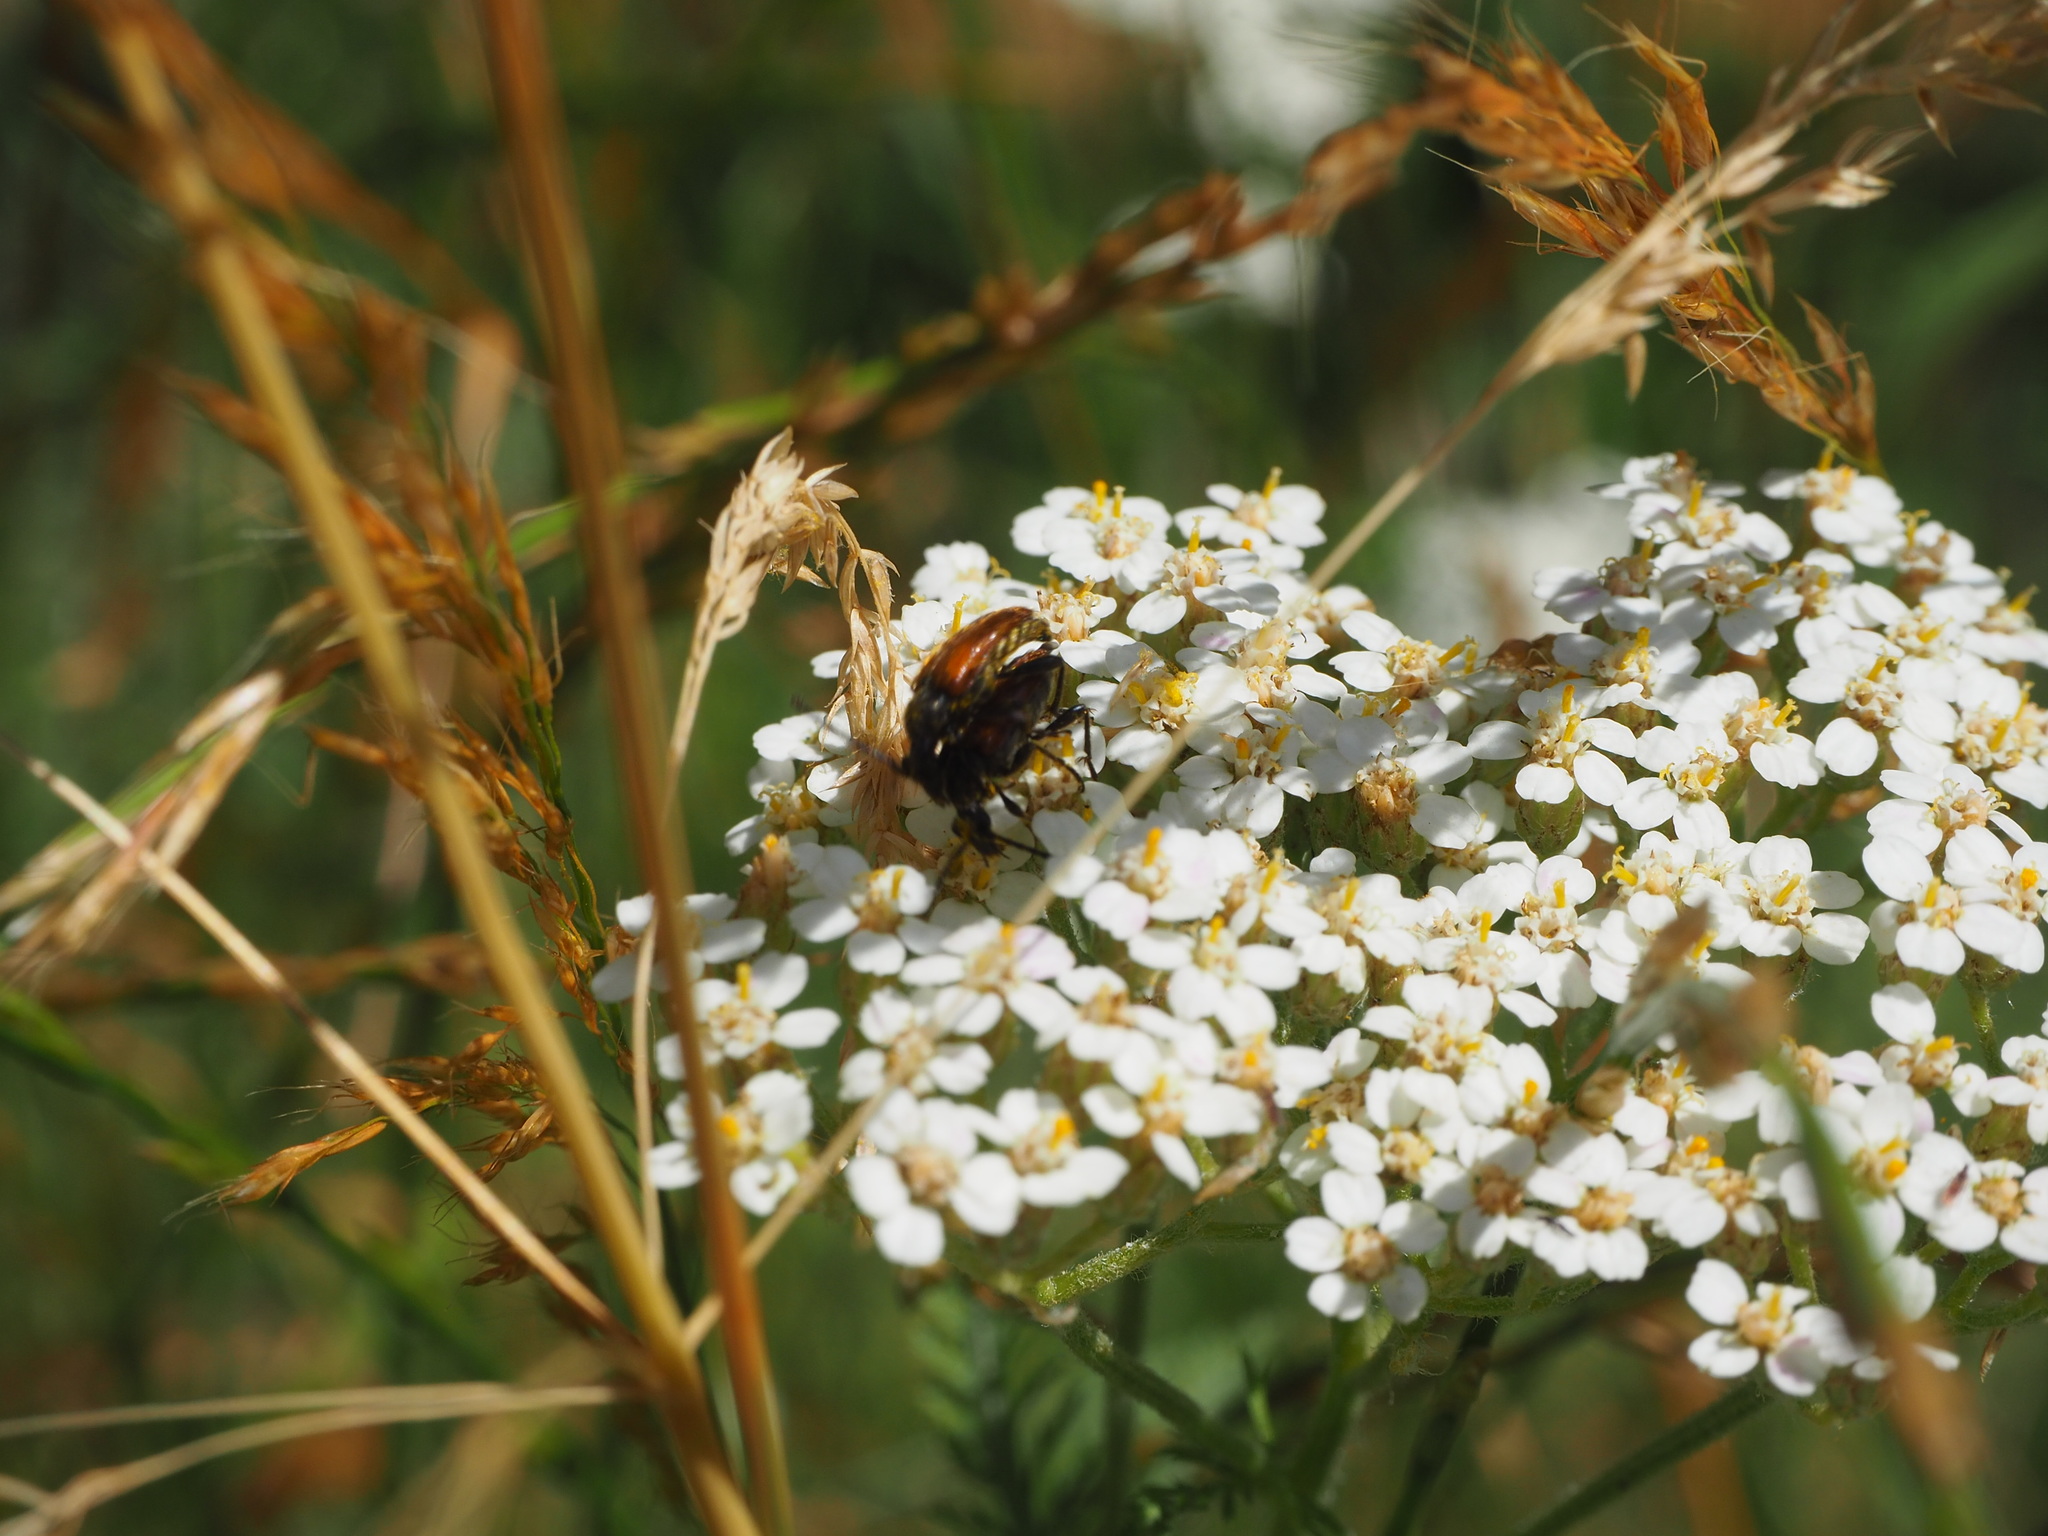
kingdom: Animalia
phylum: Arthropoda
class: Insecta
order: Coleoptera
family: Cerambycidae
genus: Pseudovadonia
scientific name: Pseudovadonia livida
